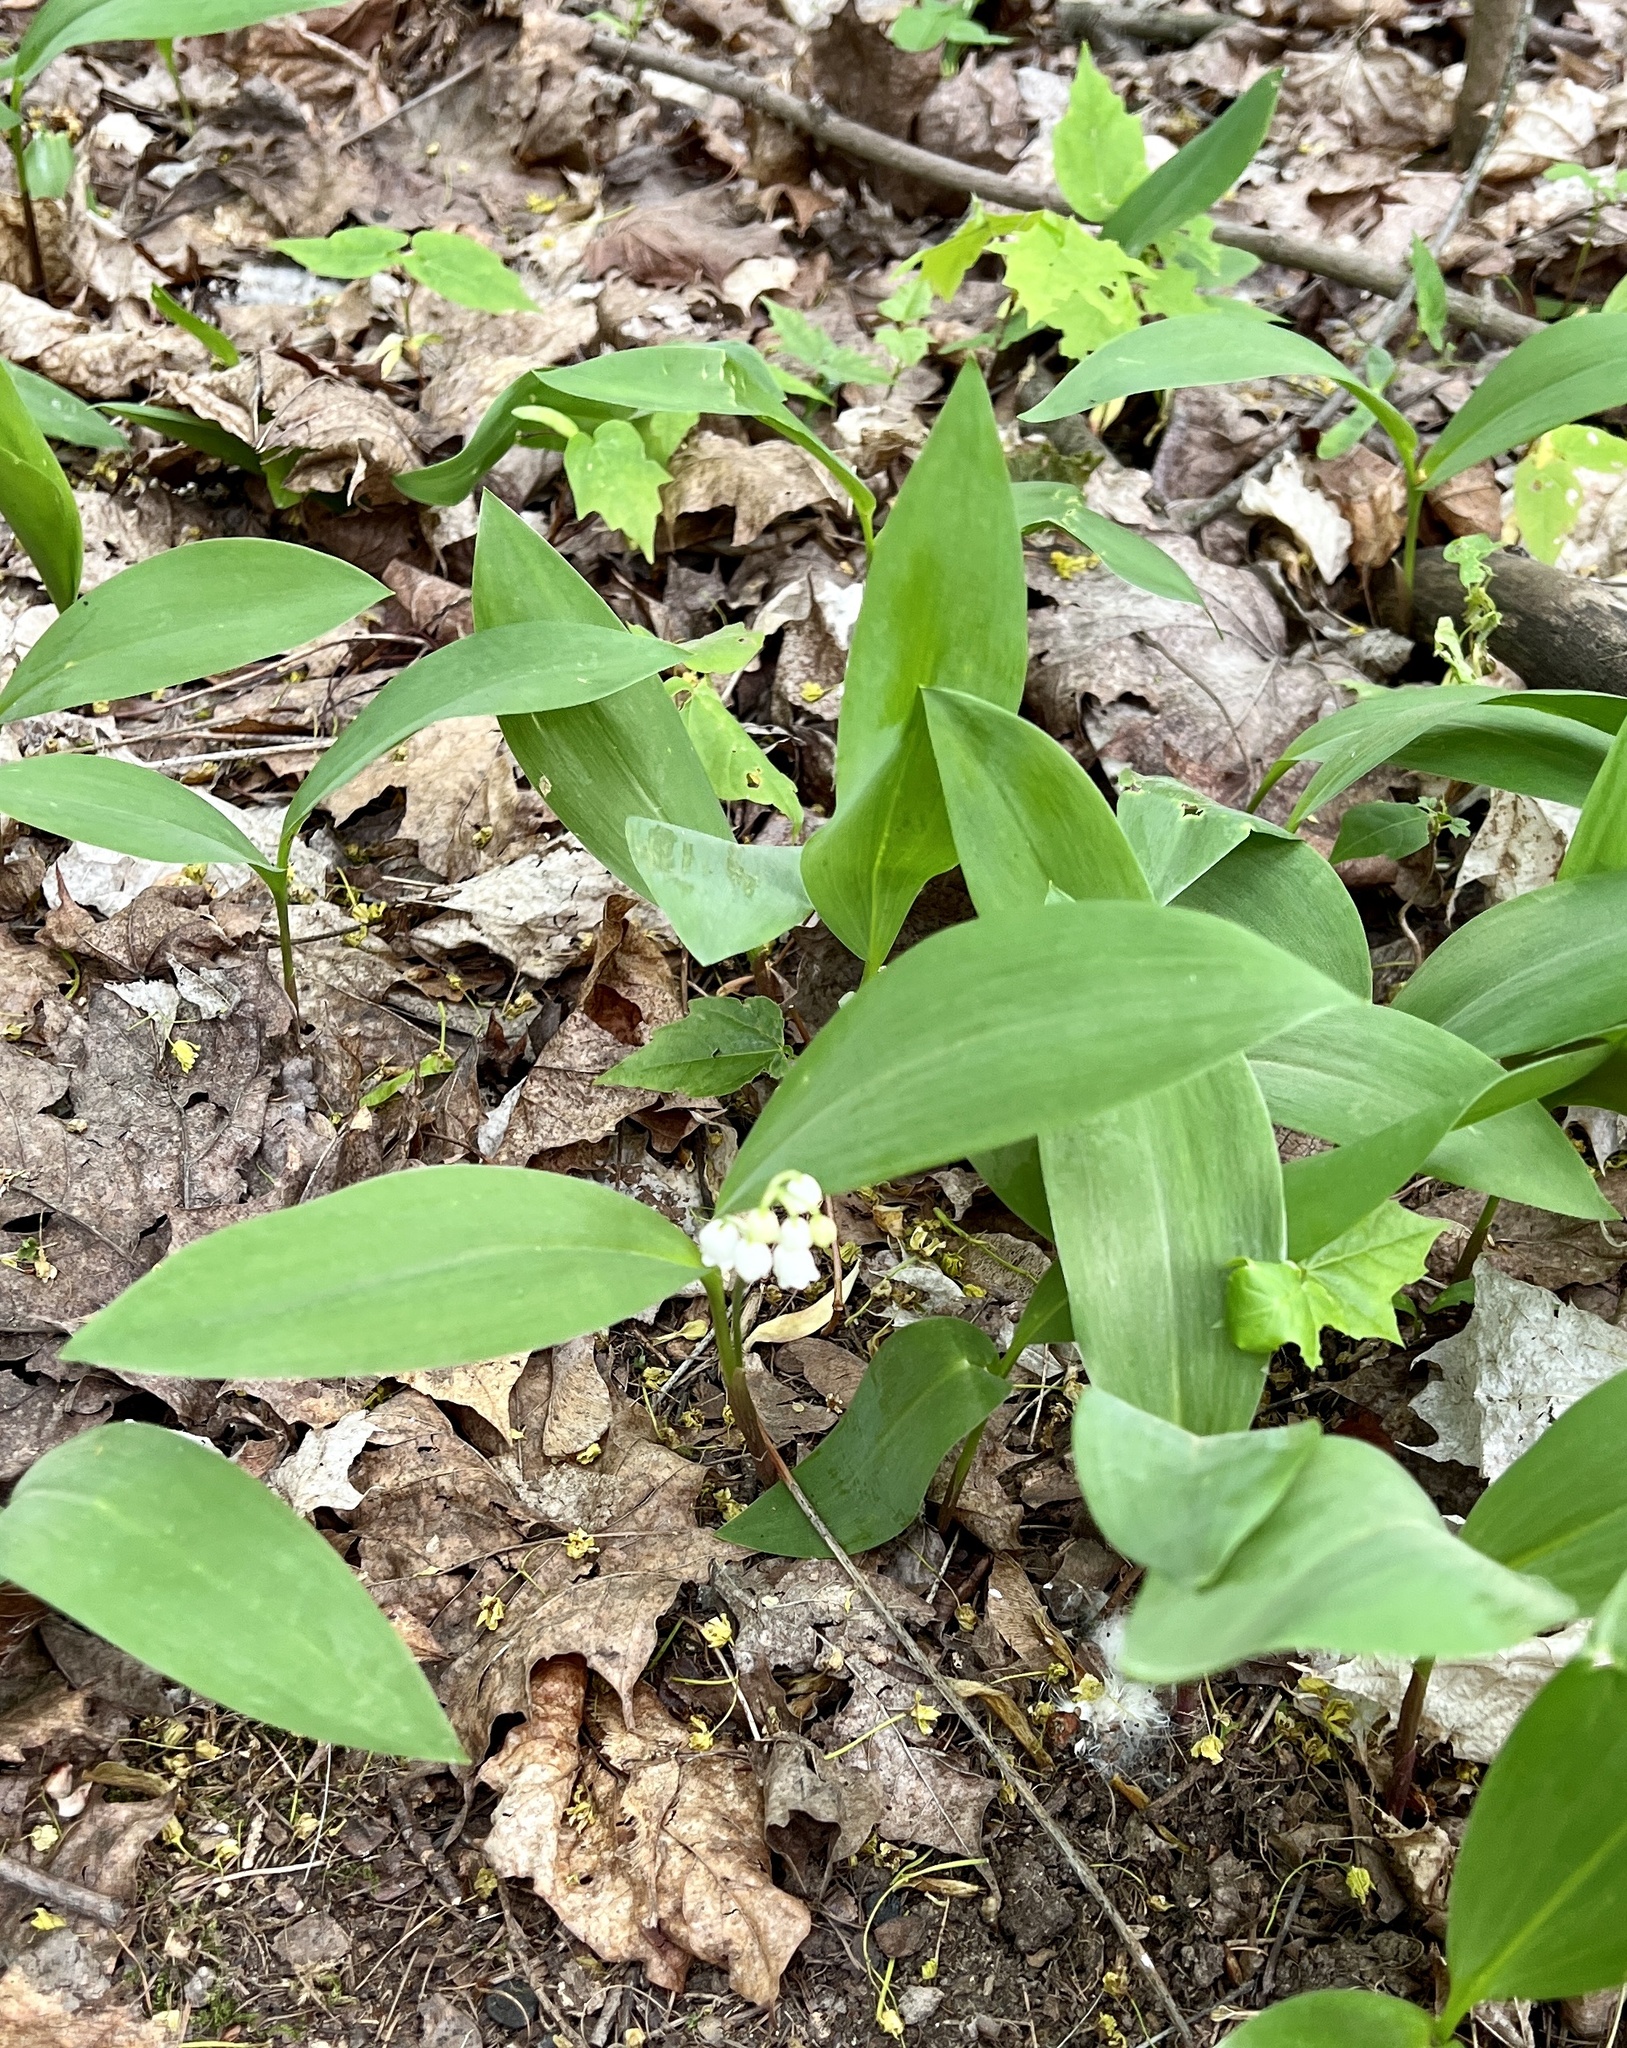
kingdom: Plantae
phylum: Tracheophyta
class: Liliopsida
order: Asparagales
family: Asparagaceae
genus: Convallaria
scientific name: Convallaria majalis
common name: Lily-of-the-valley
